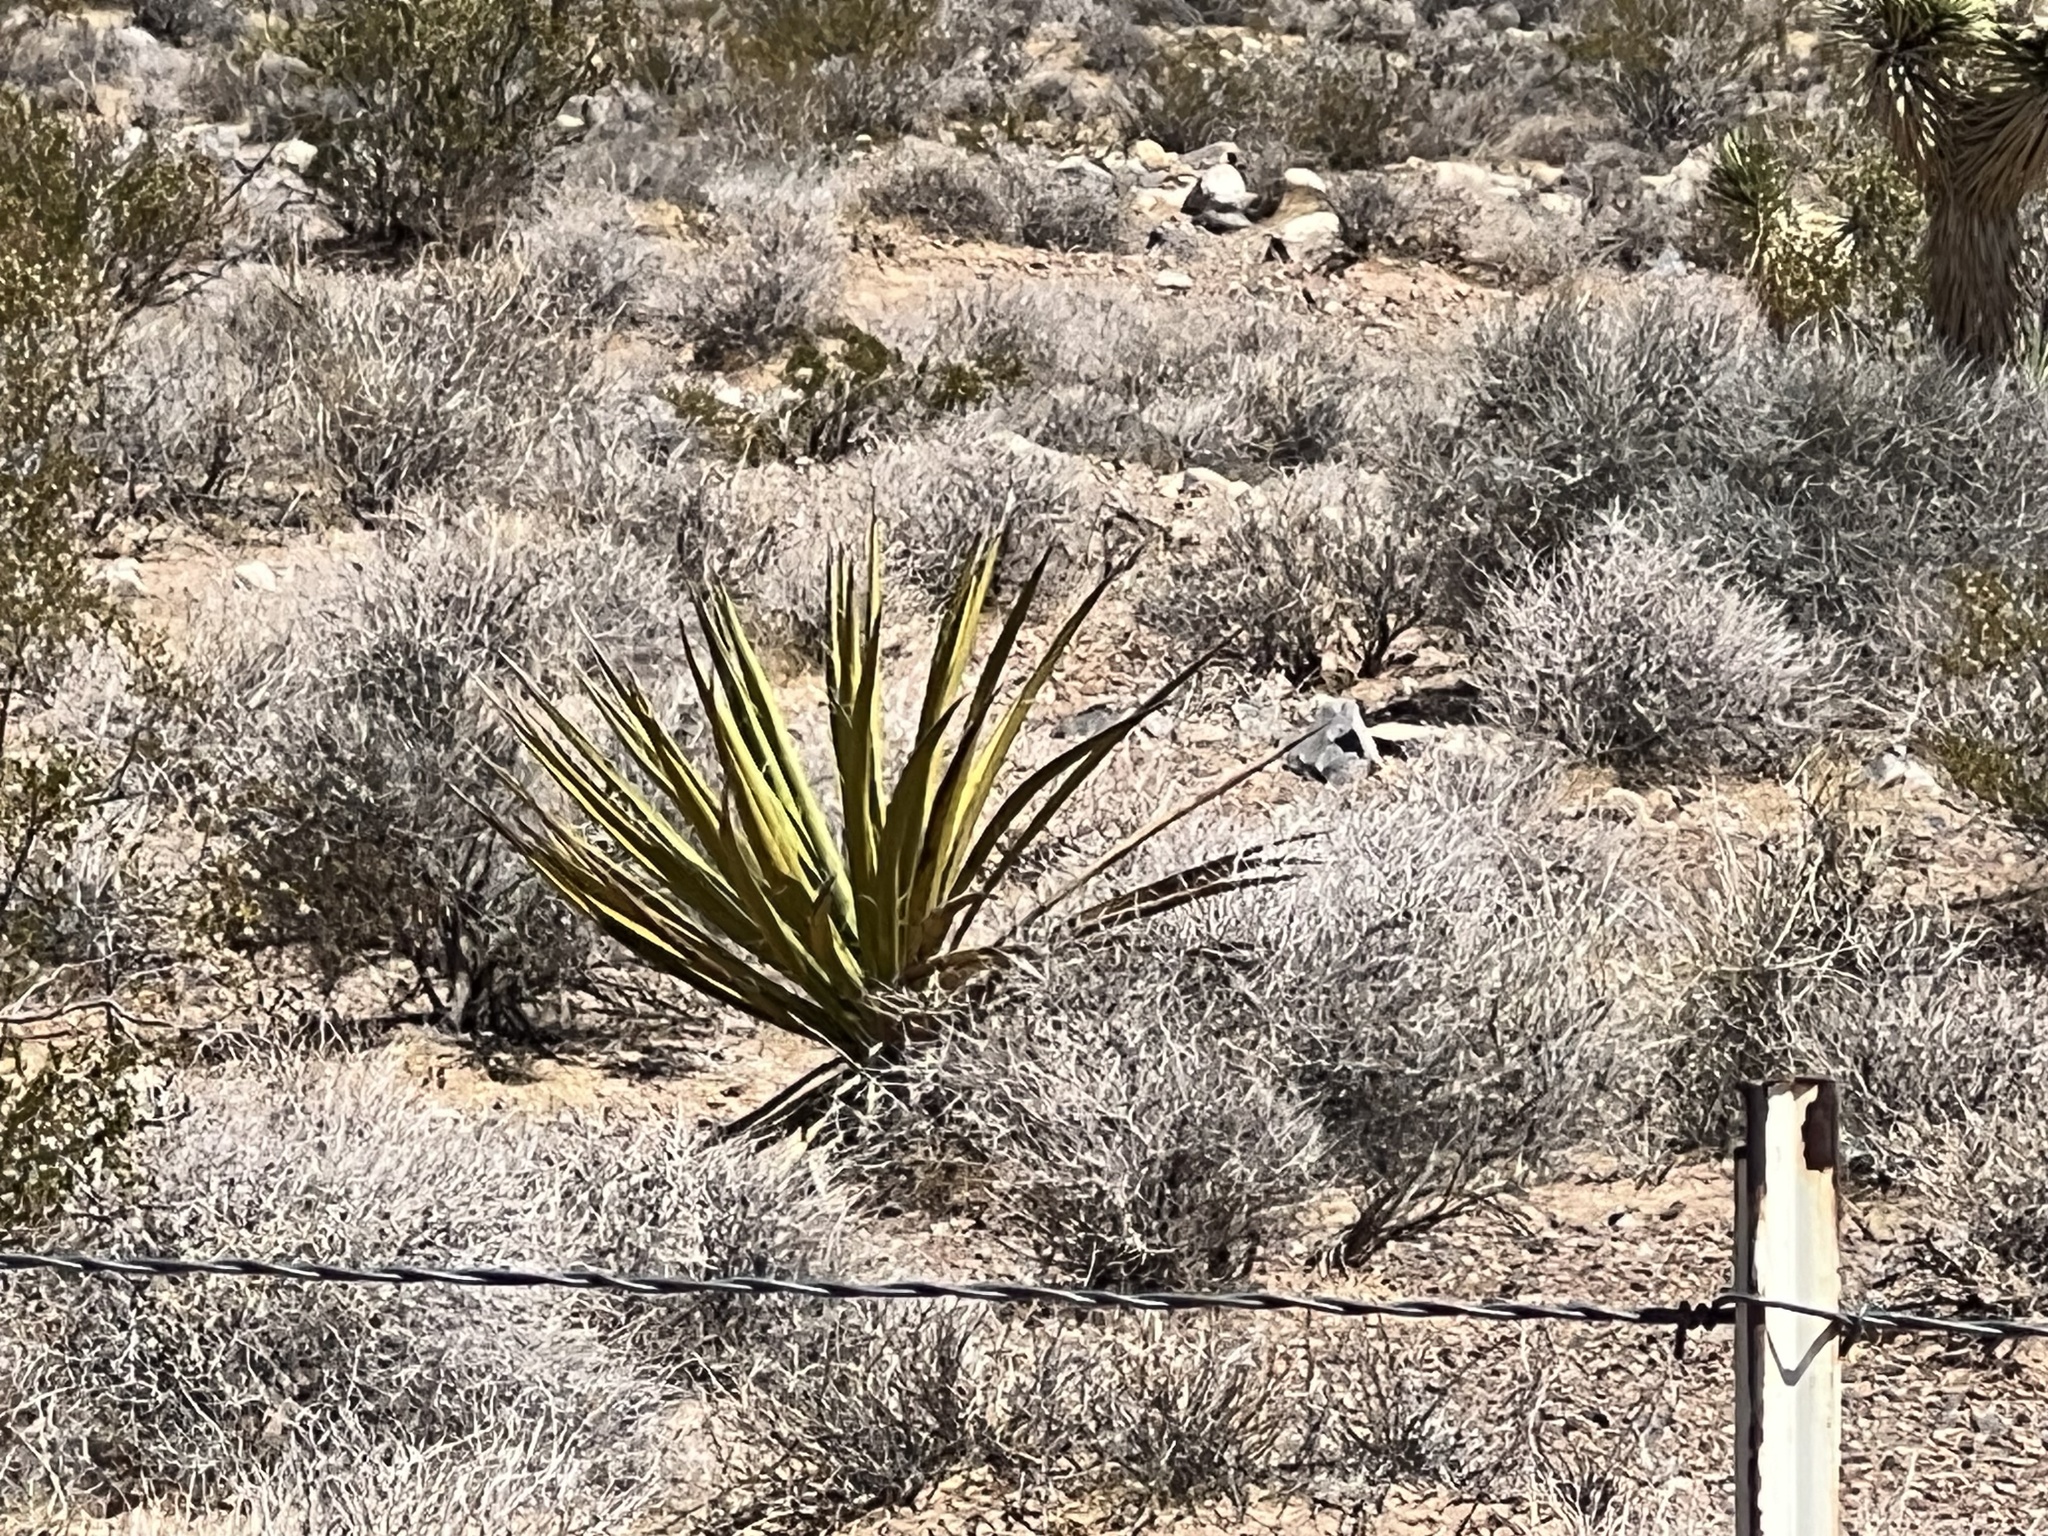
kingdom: Plantae
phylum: Tracheophyta
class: Liliopsida
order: Asparagales
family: Asparagaceae
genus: Yucca
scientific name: Yucca schidigera
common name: Mojave yucca
